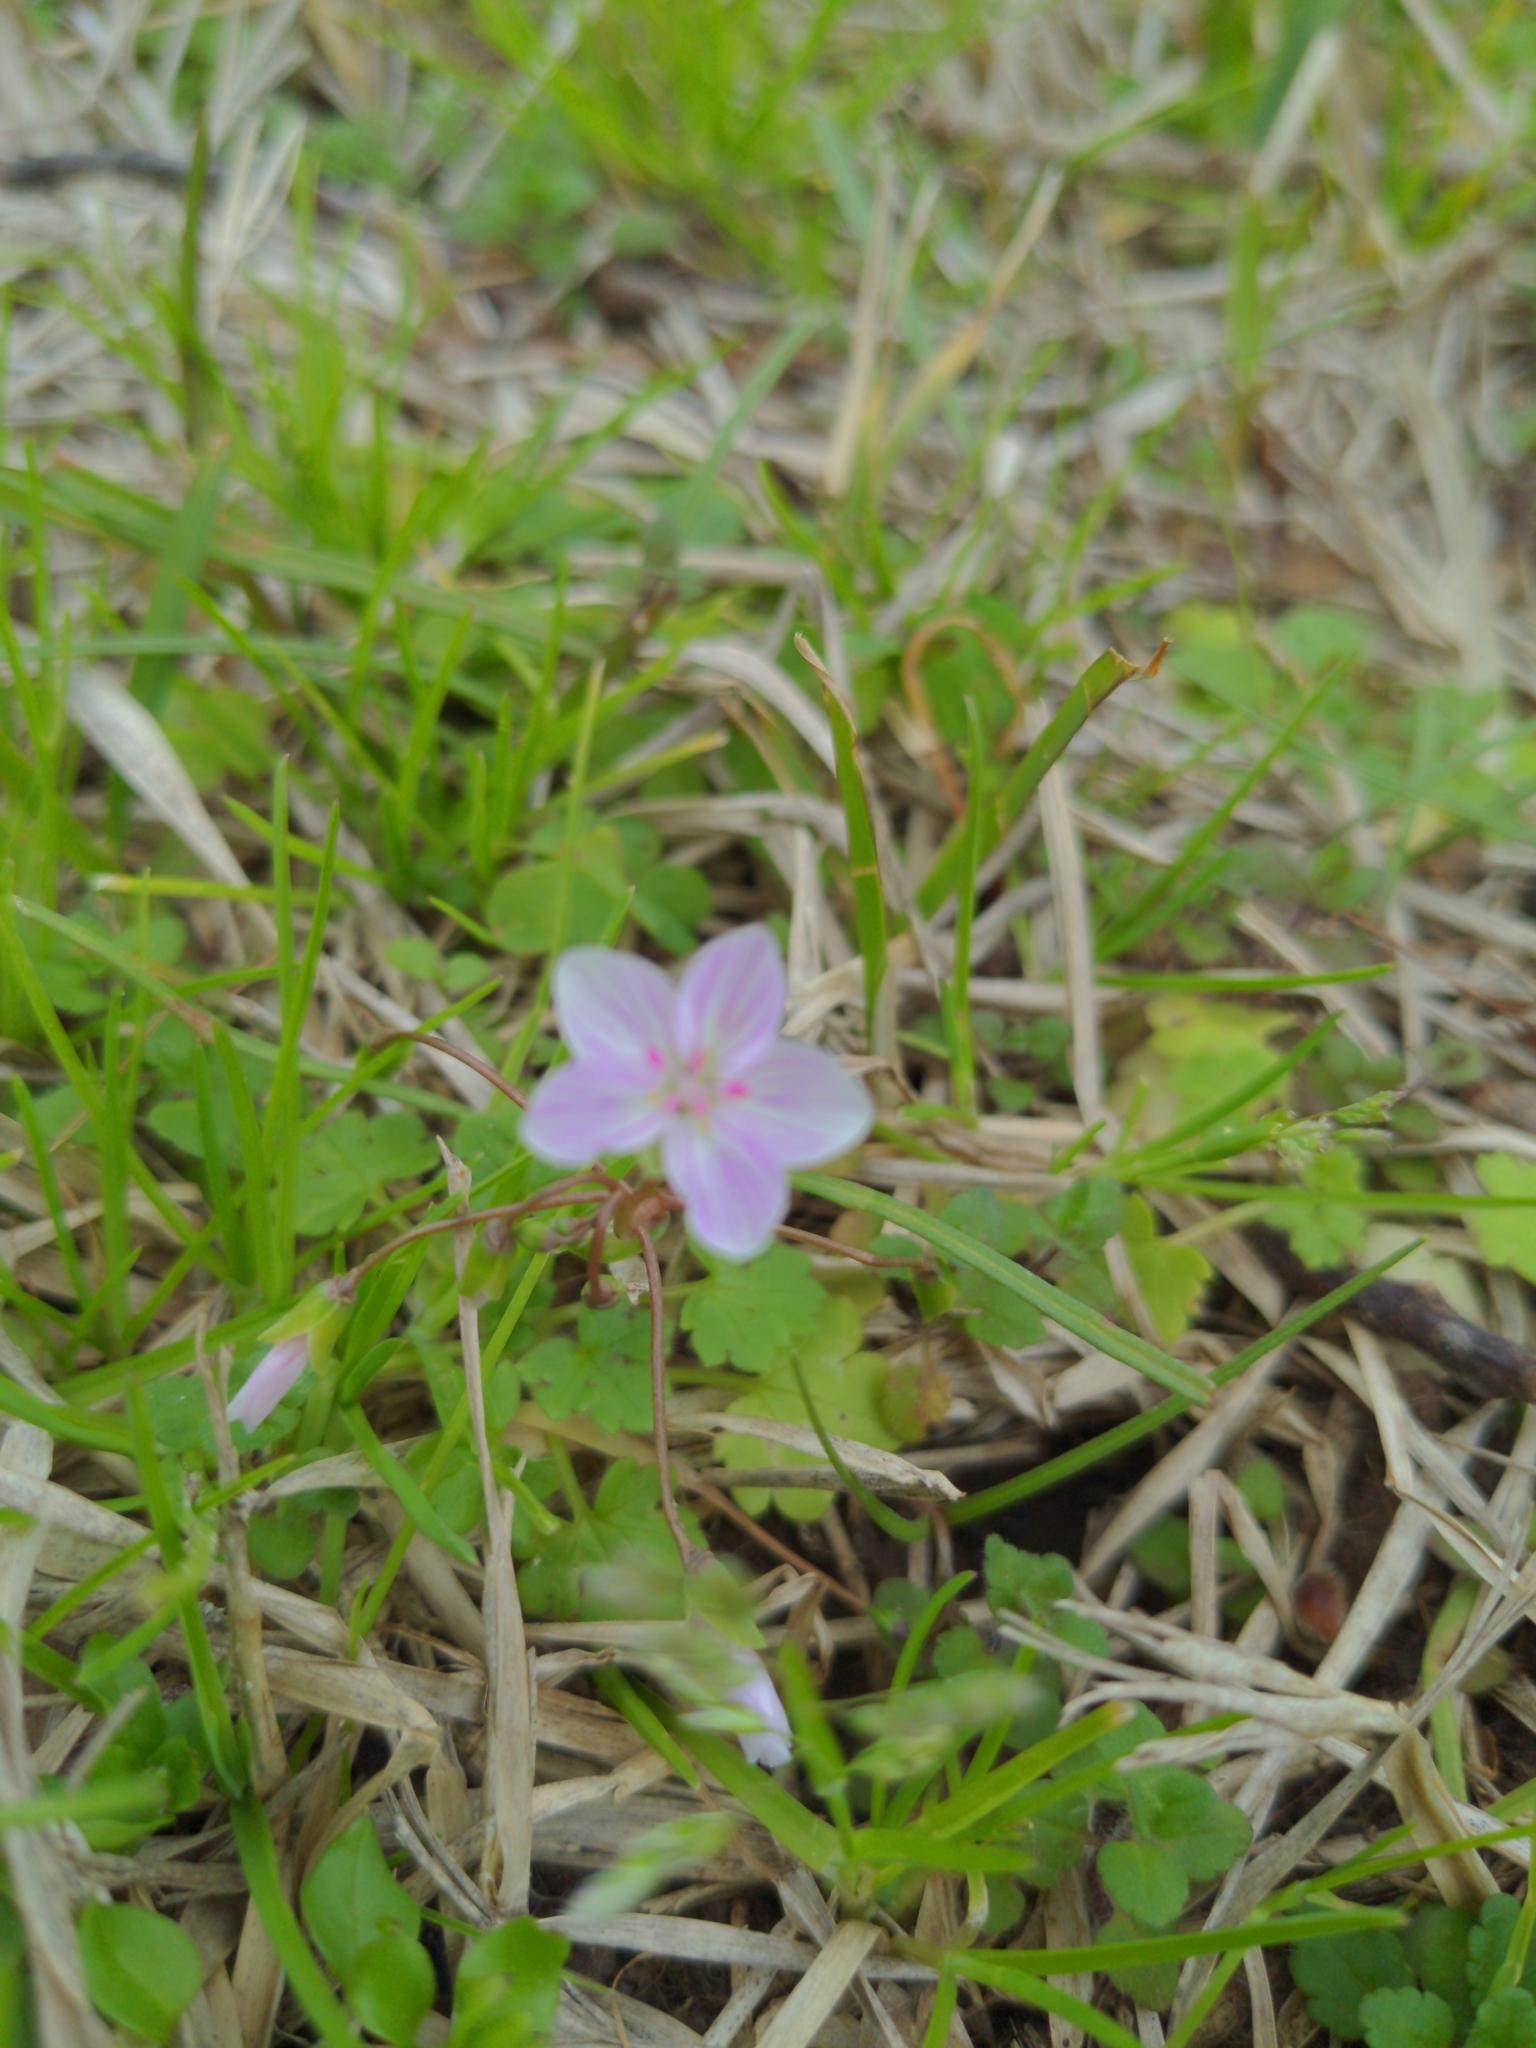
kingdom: Plantae
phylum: Tracheophyta
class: Magnoliopsida
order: Caryophyllales
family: Montiaceae
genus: Claytonia
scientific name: Claytonia virginica
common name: Virginia springbeauty
